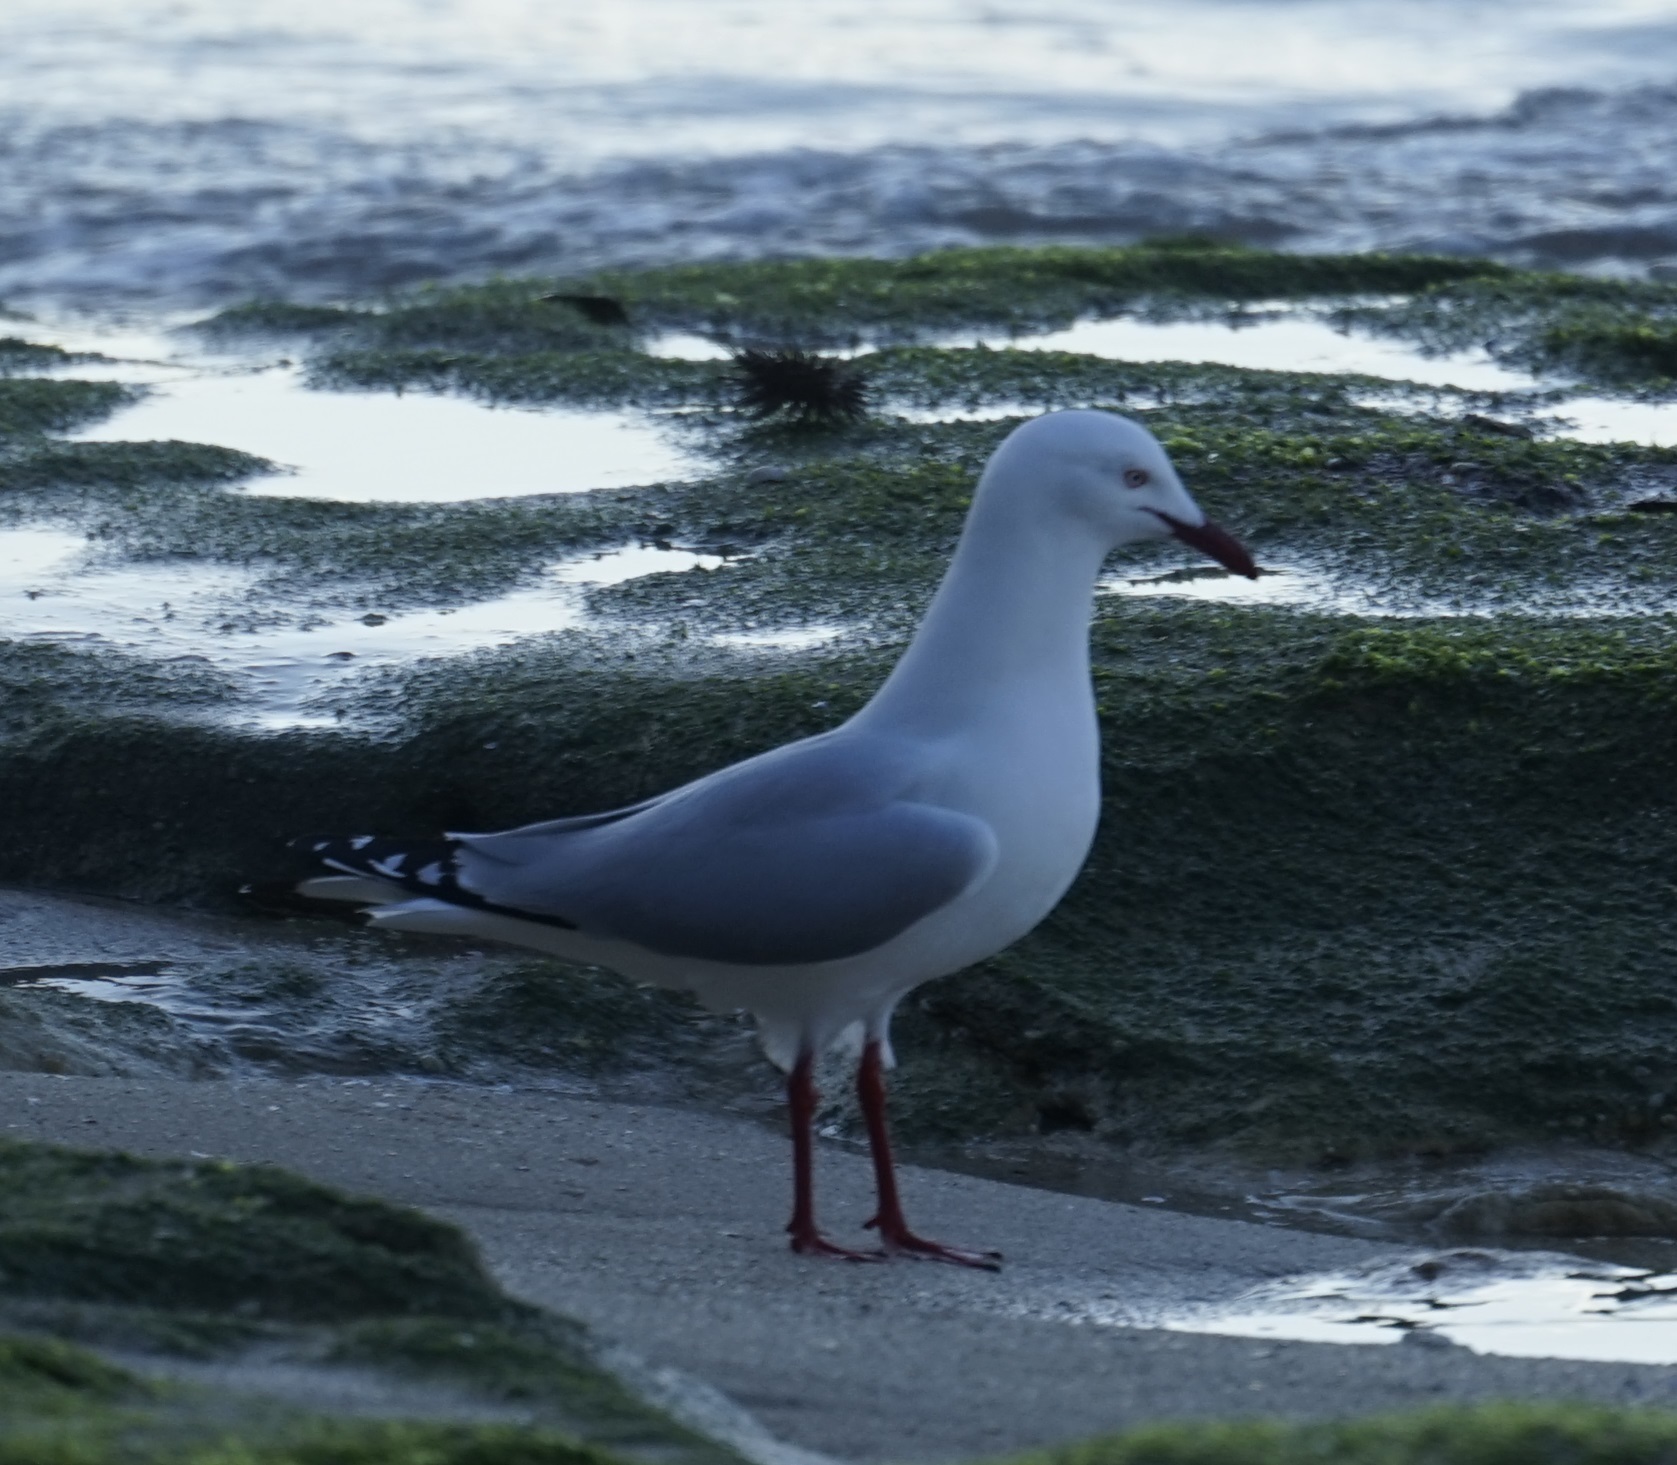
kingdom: Animalia
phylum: Chordata
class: Aves
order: Charadriiformes
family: Laridae
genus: Chroicocephalus
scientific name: Chroicocephalus novaehollandiae
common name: Silver gull
